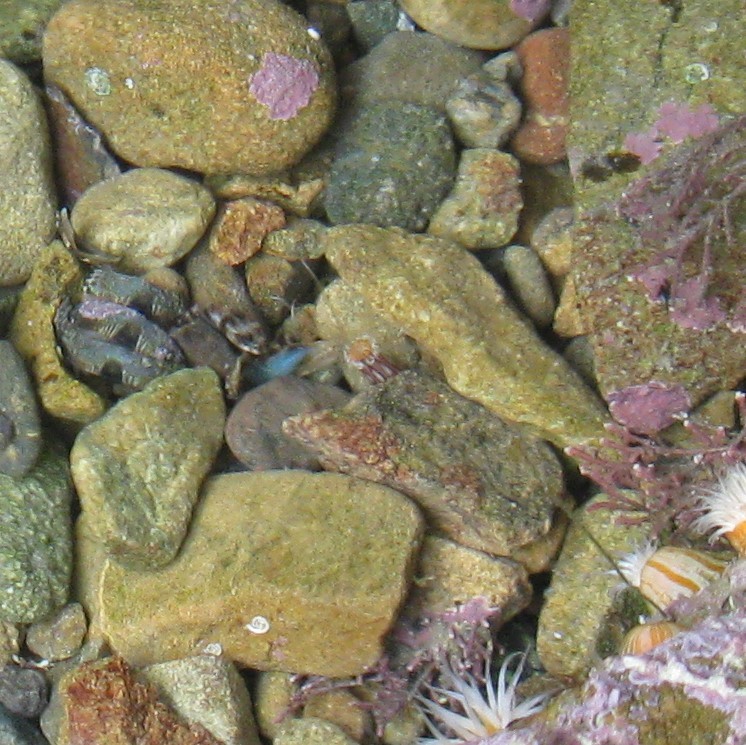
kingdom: Animalia
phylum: Cnidaria
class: Anthozoa
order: Actiniaria
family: Edwardsiidae
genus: Edwardsia
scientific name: Edwardsia neozelanica
